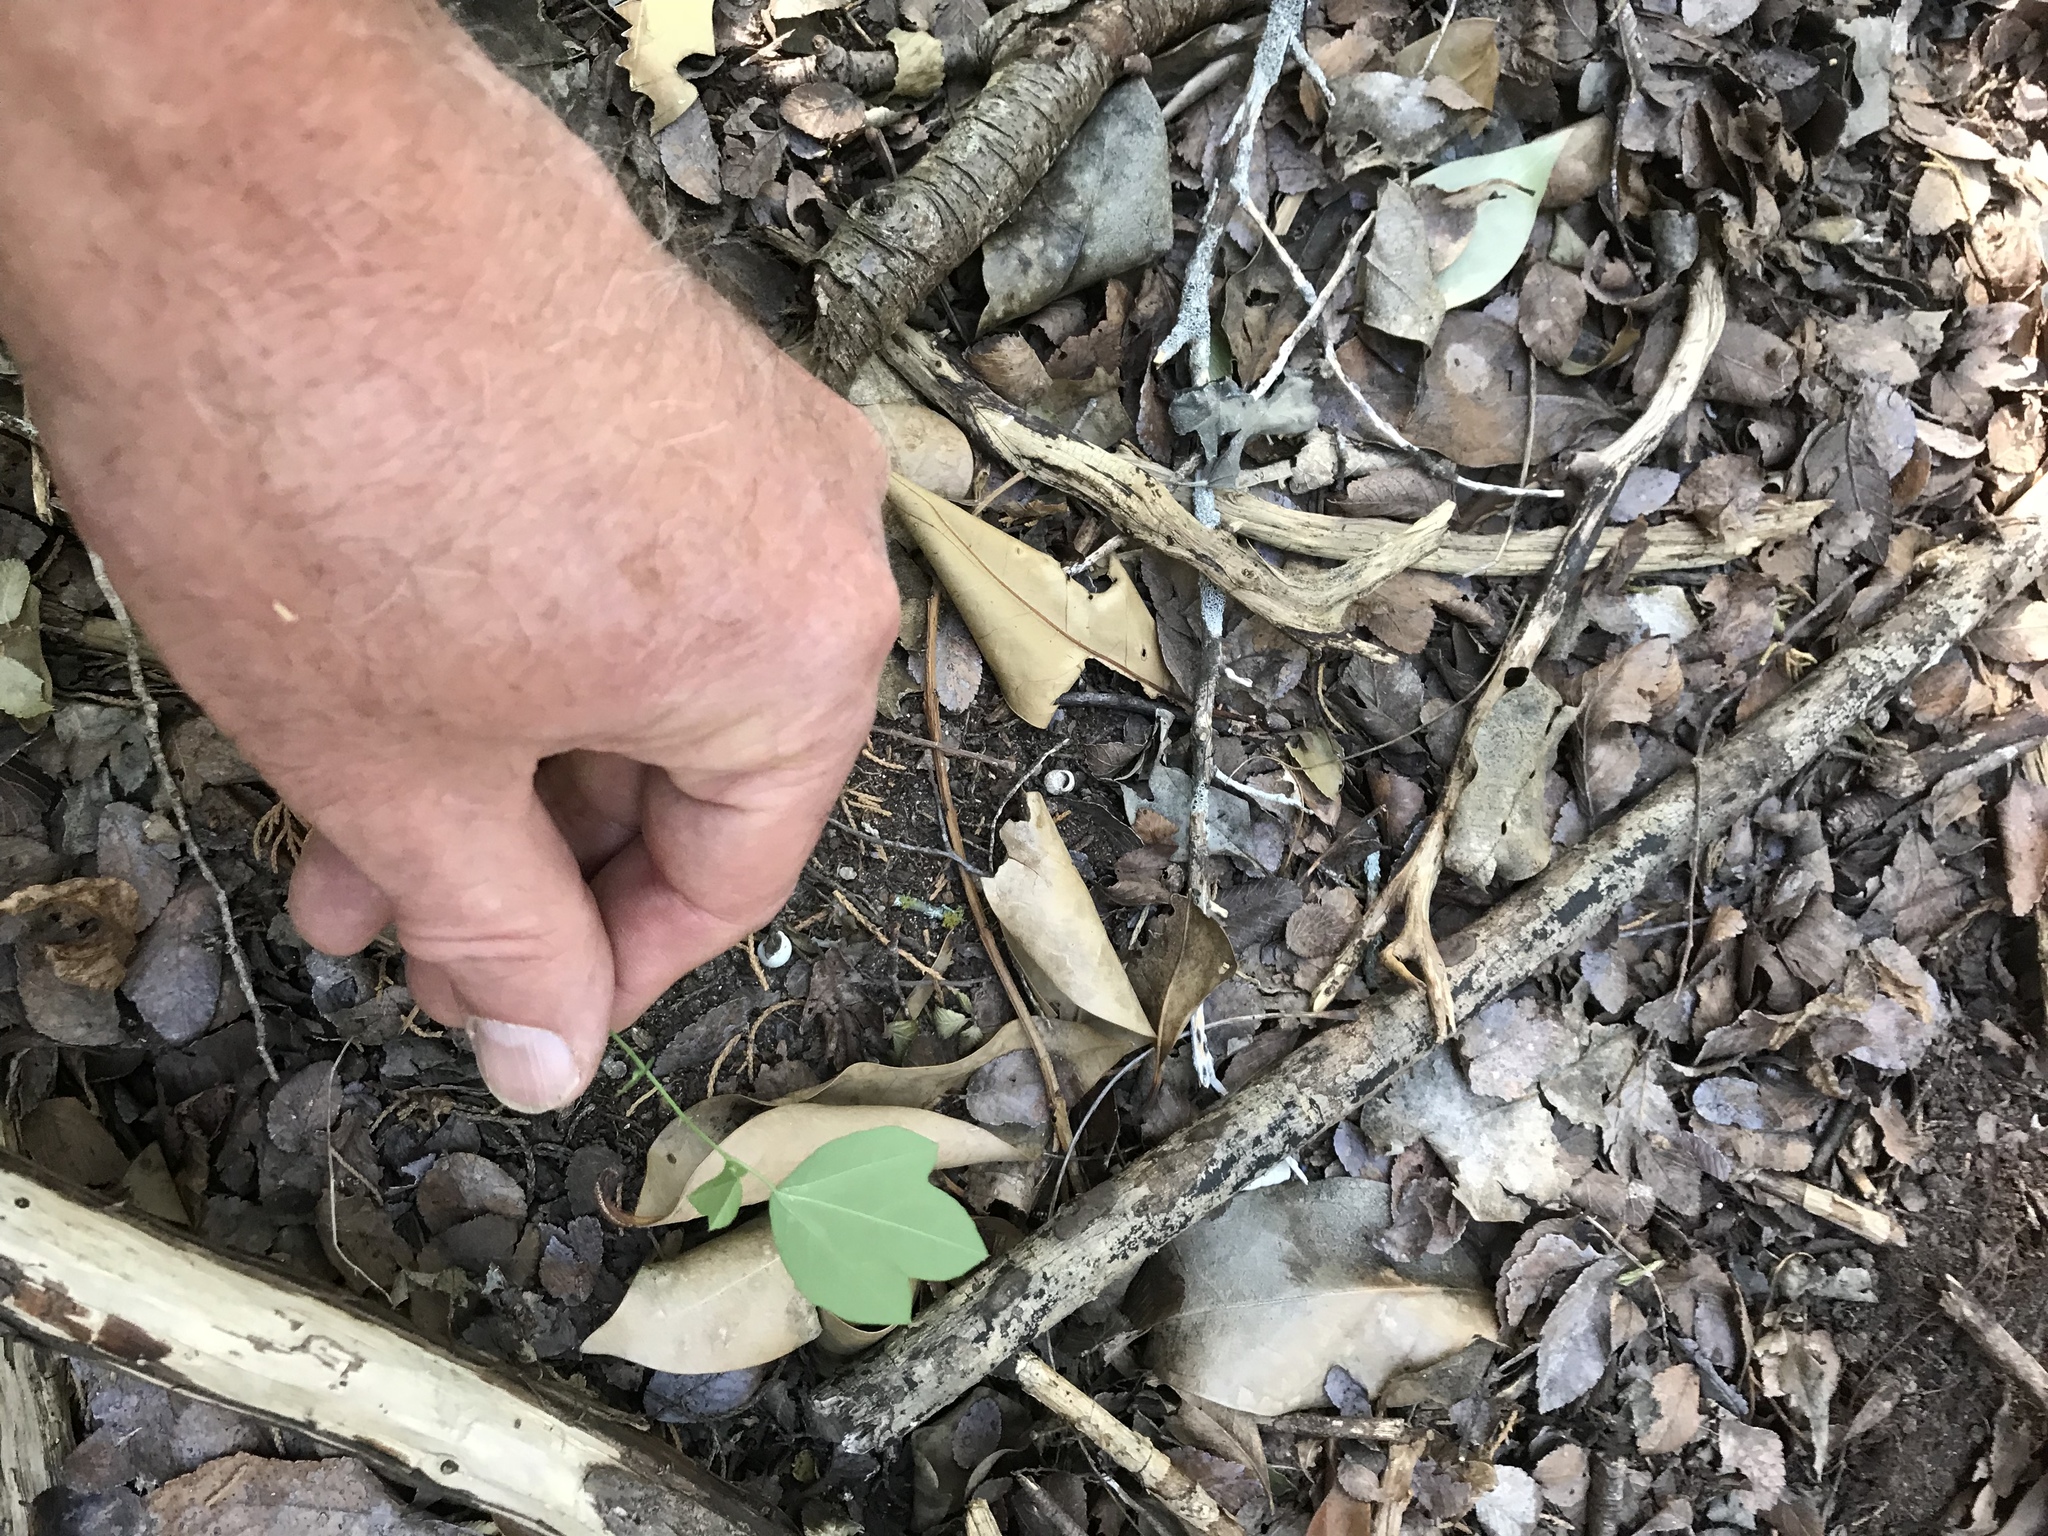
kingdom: Plantae
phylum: Tracheophyta
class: Magnoliopsida
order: Malpighiales
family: Passifloraceae
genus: Passiflora
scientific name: Passiflora lutea
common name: Yellow passionflower
